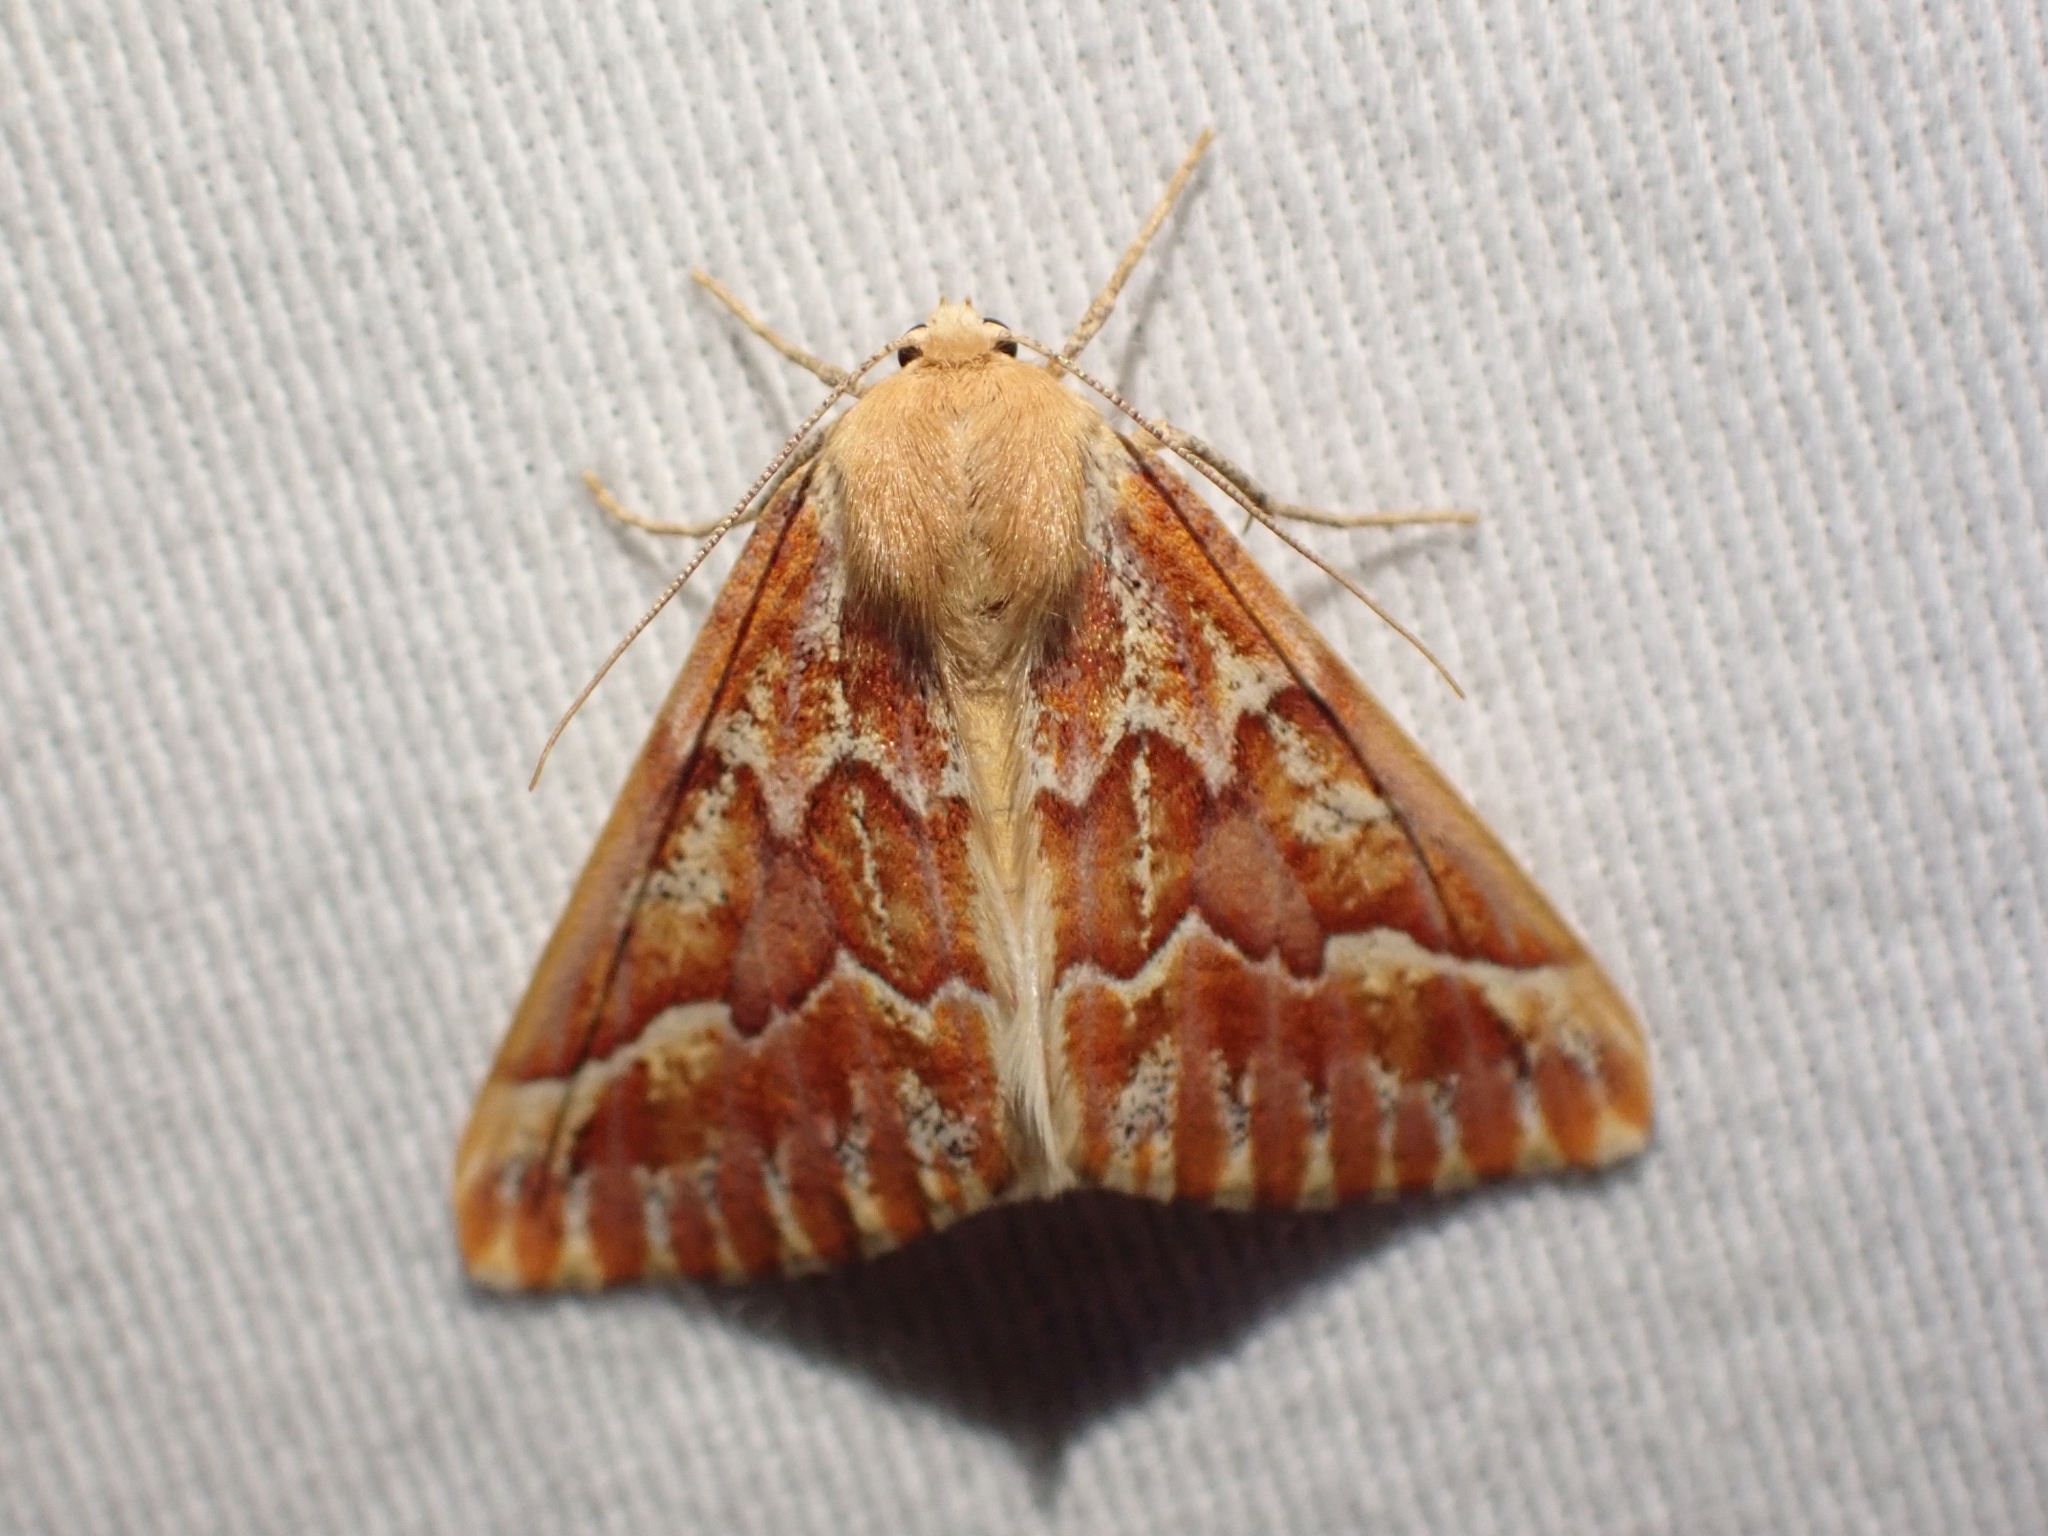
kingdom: Animalia
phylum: Arthropoda
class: Insecta
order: Lepidoptera
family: Geometridae
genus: Caripeta
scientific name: Caripeta aequaliaria
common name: Red girdle moth
